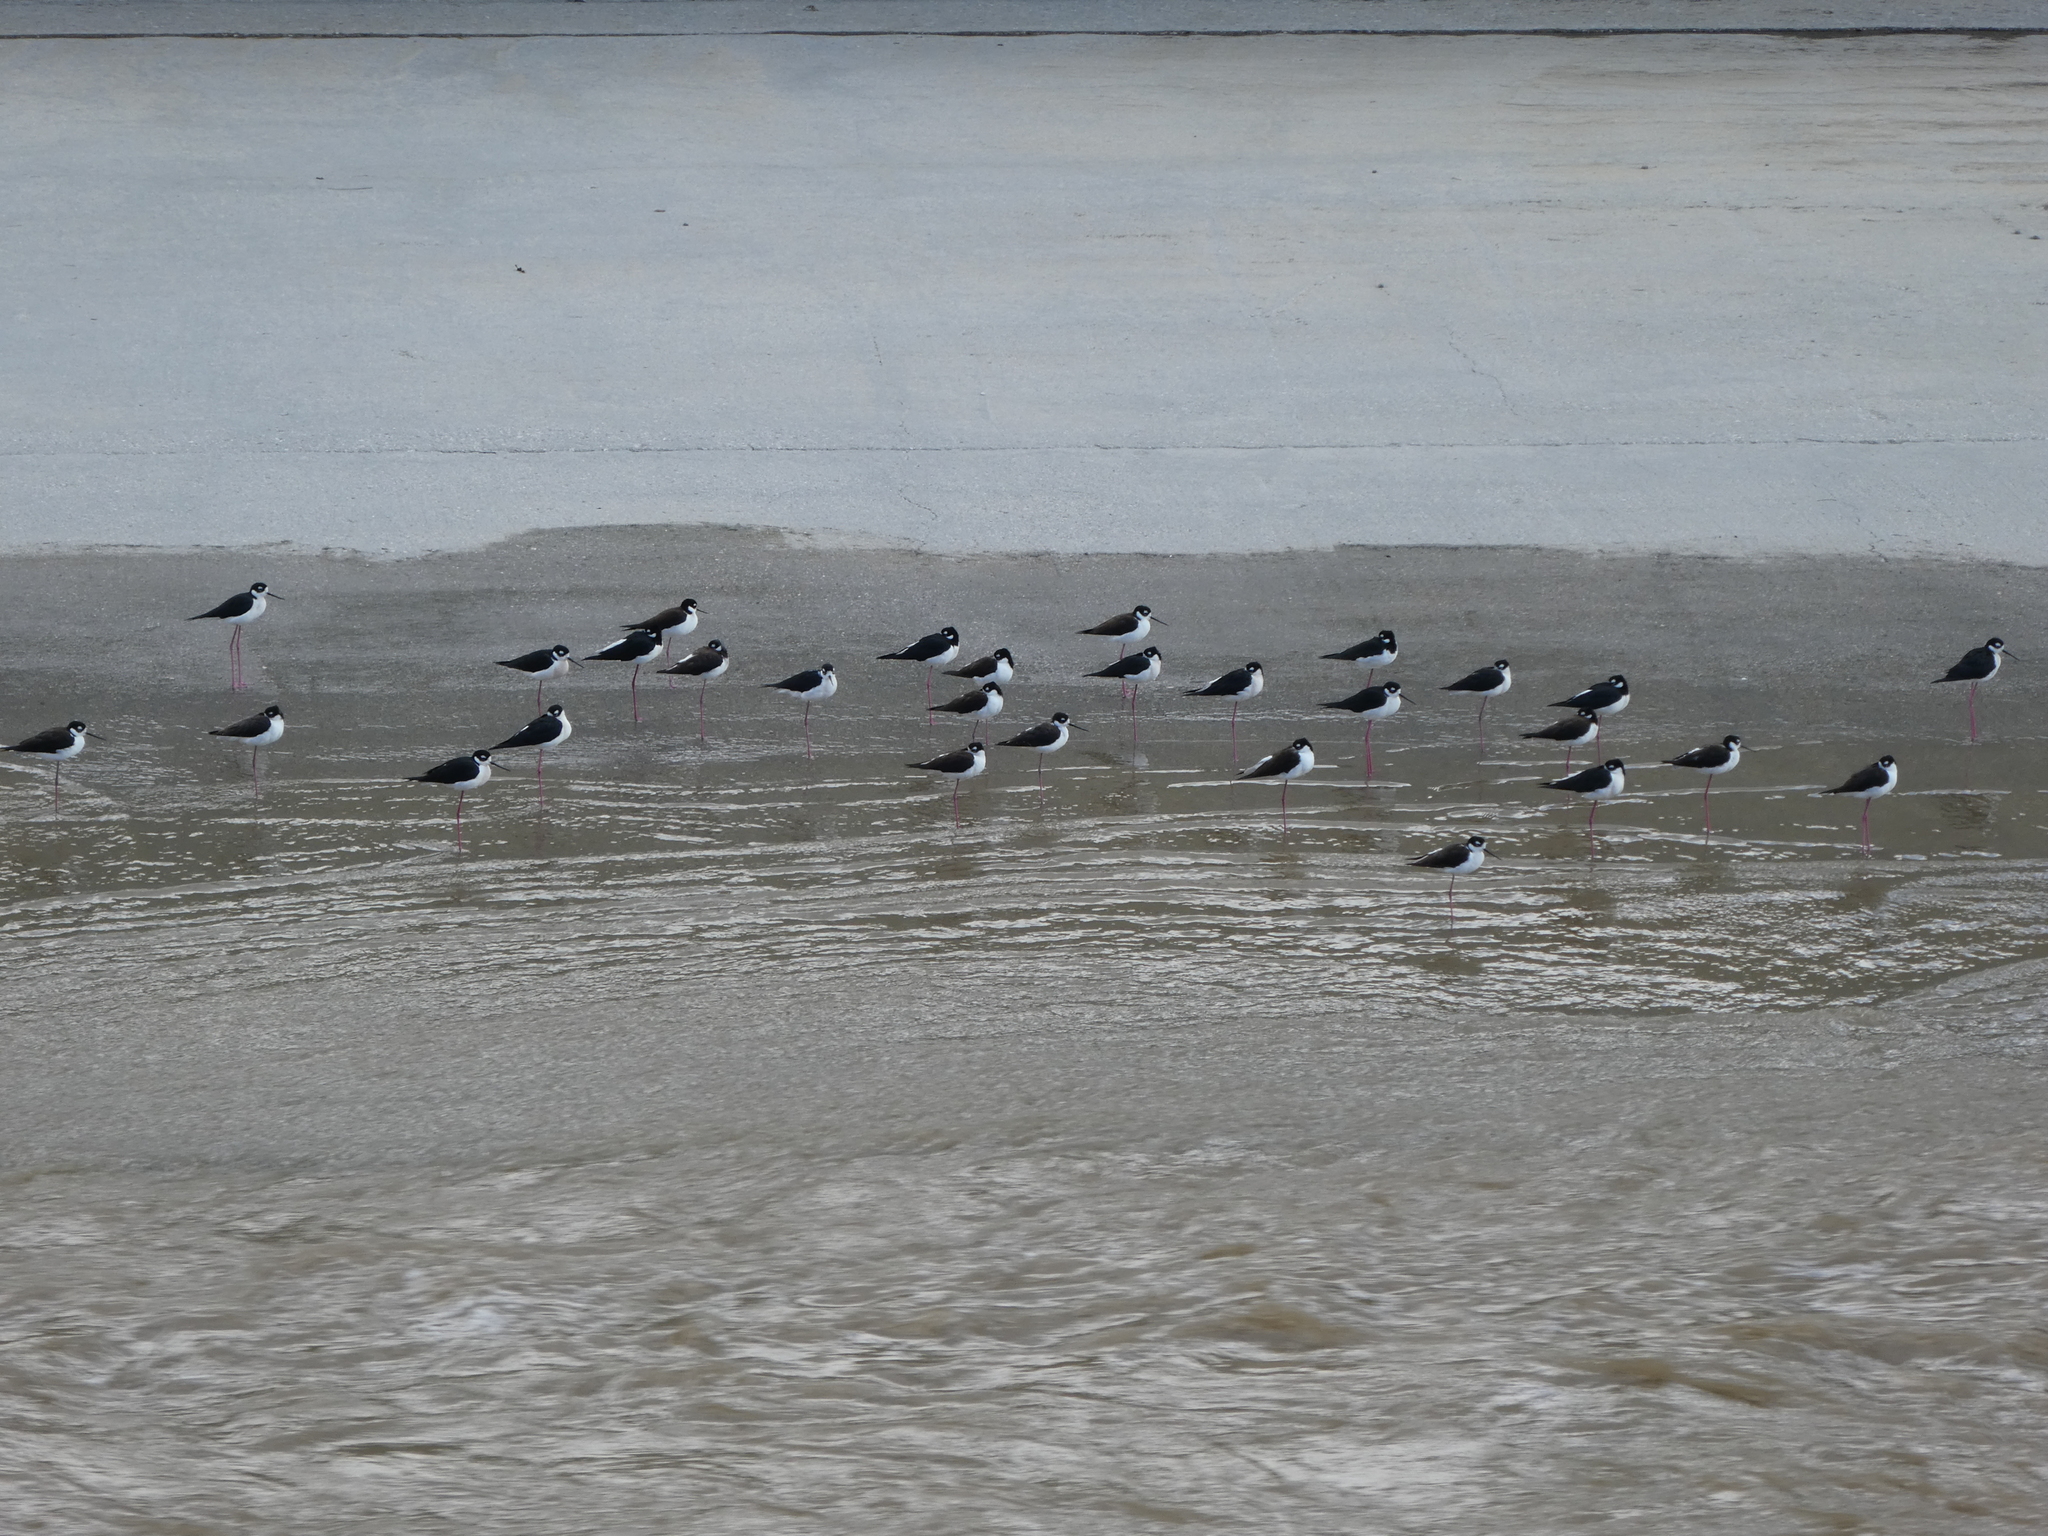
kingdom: Animalia
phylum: Chordata
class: Aves
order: Charadriiformes
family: Recurvirostridae
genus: Himantopus
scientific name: Himantopus mexicanus
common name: Black-necked stilt
